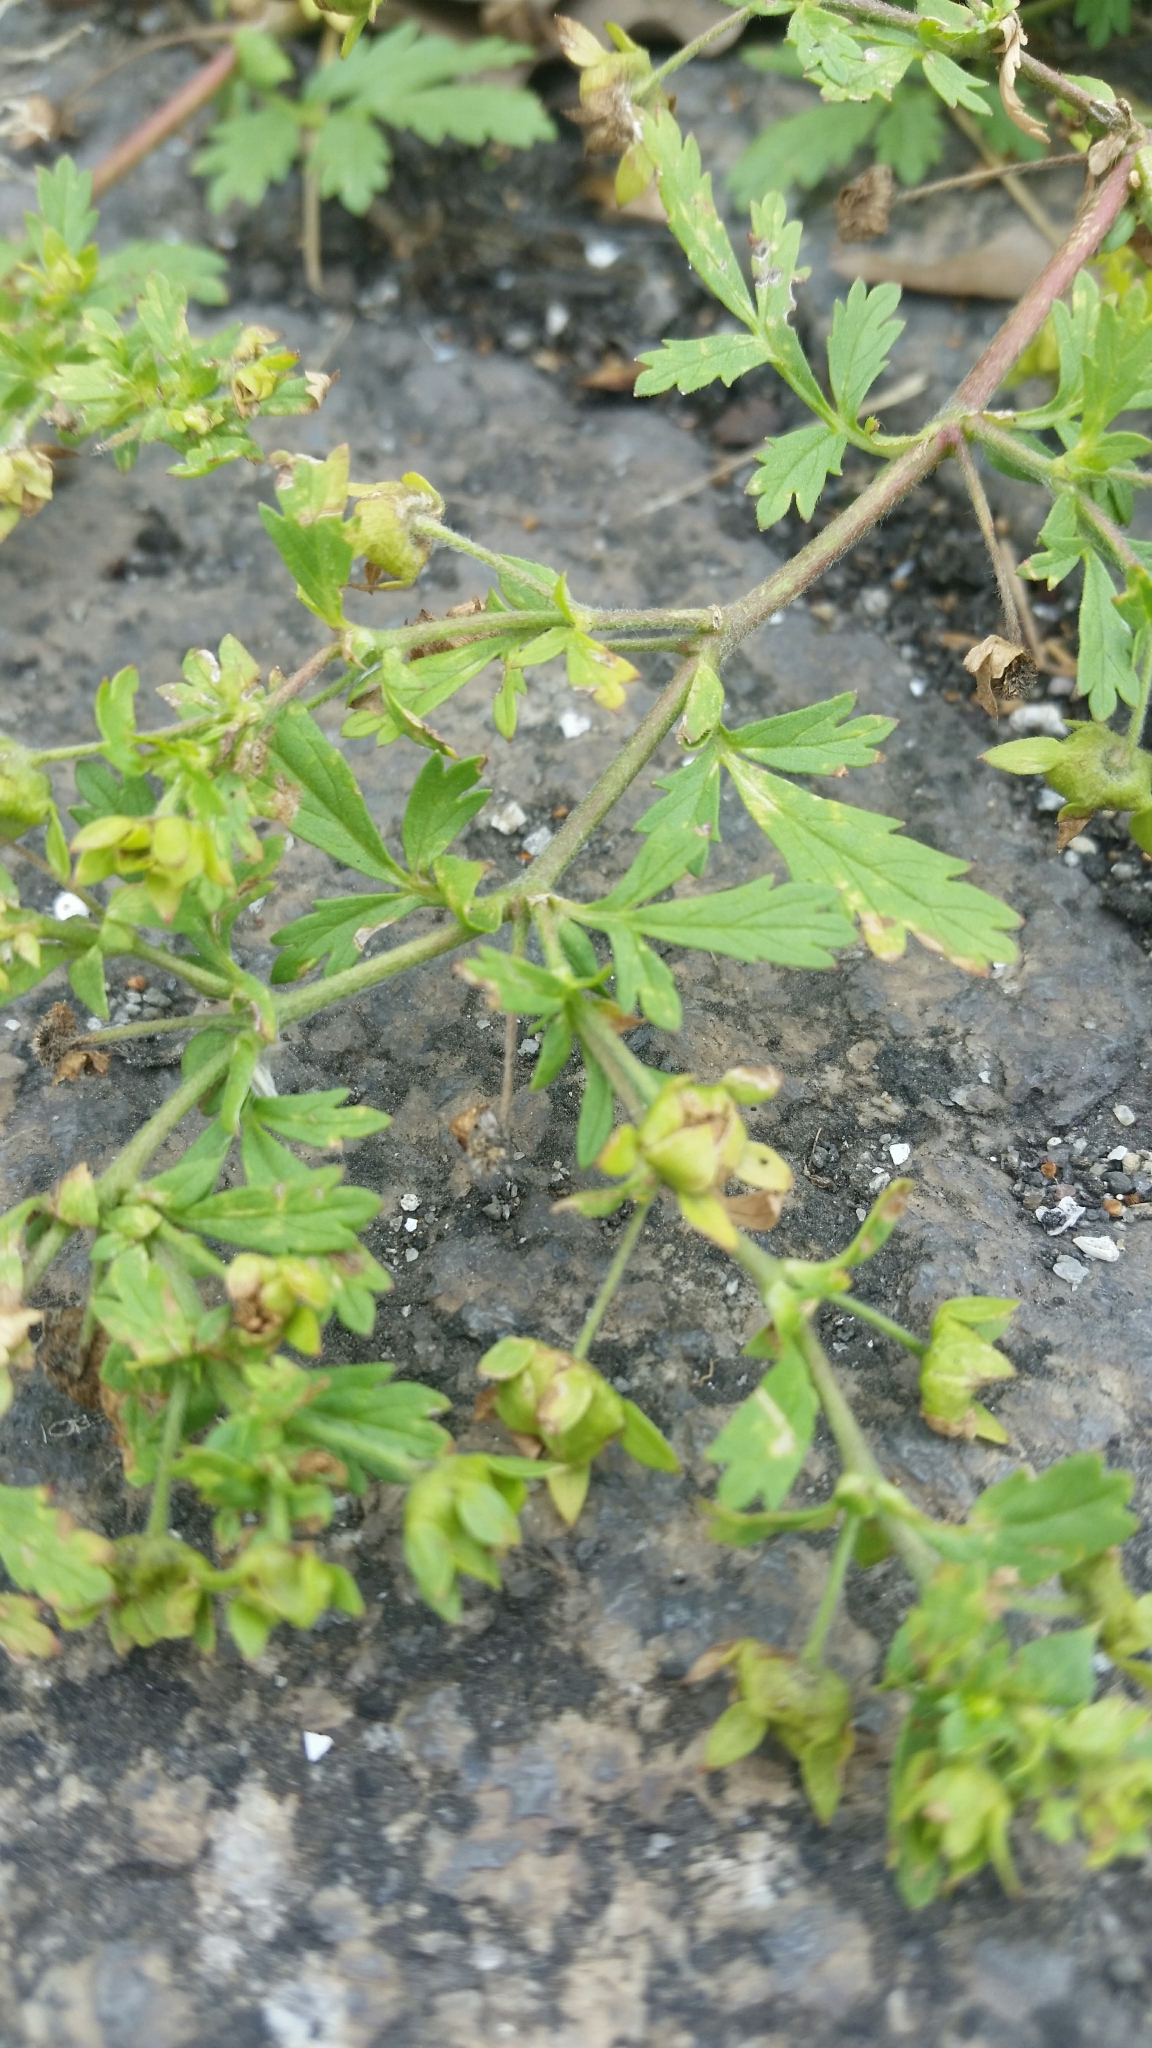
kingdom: Plantae
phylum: Tracheophyta
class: Magnoliopsida
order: Rosales
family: Rosaceae
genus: Potentilla
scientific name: Potentilla supina
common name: Prostrate cinquefoil
